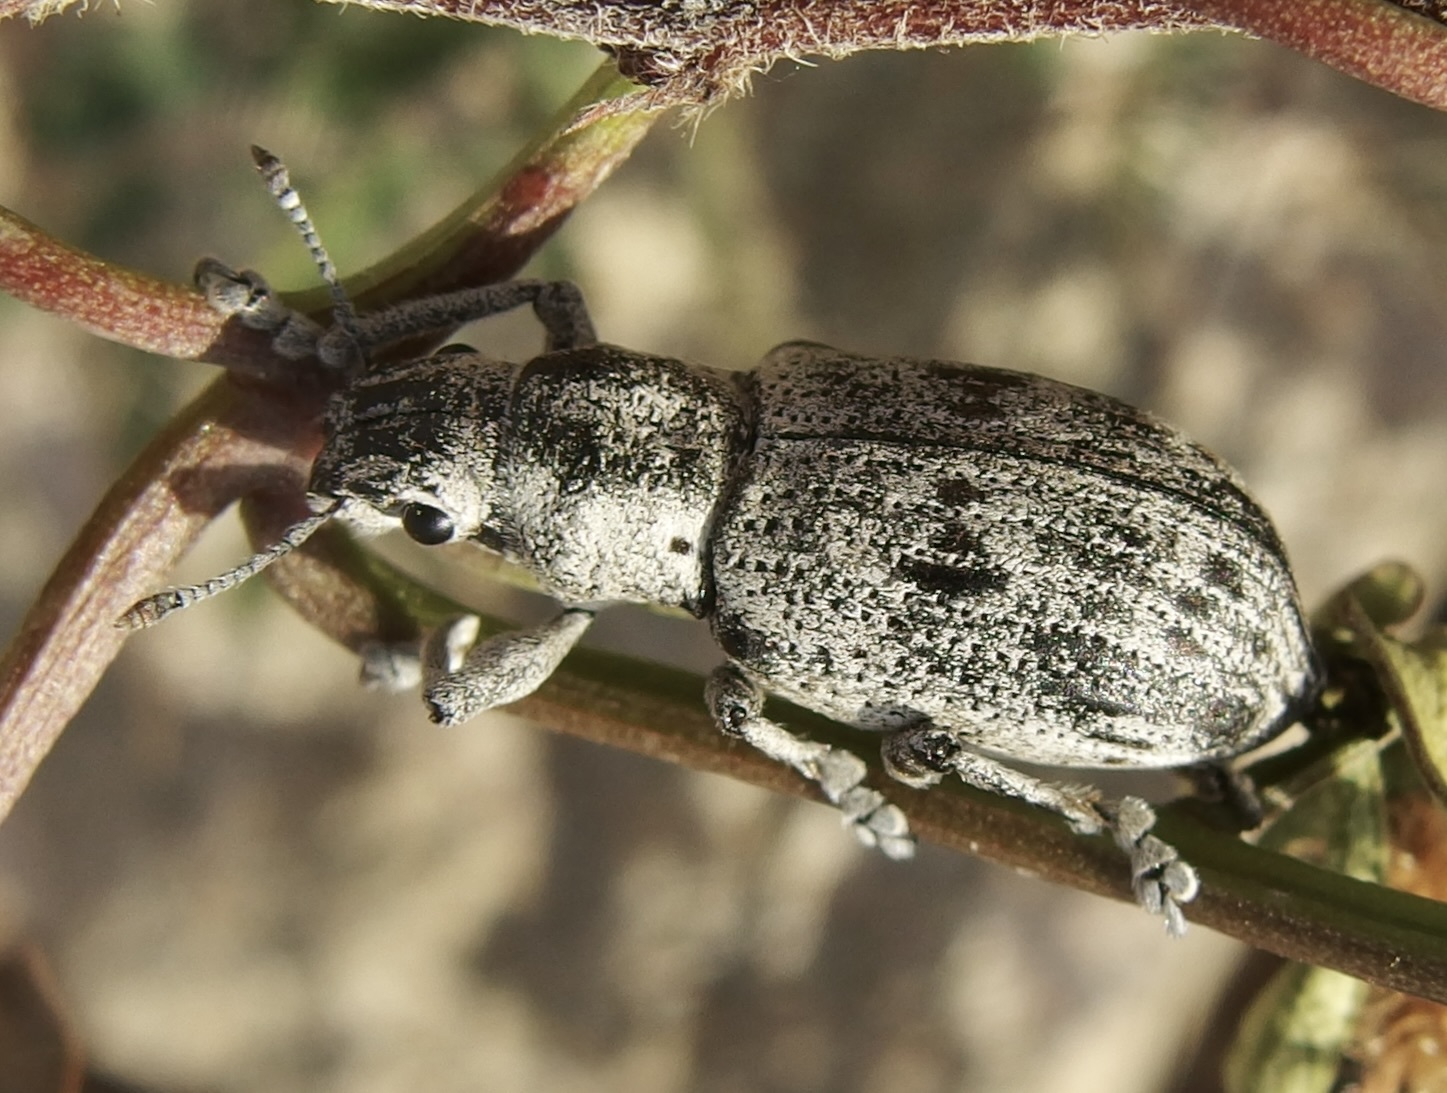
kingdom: Animalia
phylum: Arthropoda
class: Insecta
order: Coleoptera
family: Curculionidae
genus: Ericydeus
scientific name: Ericydeus lautus
